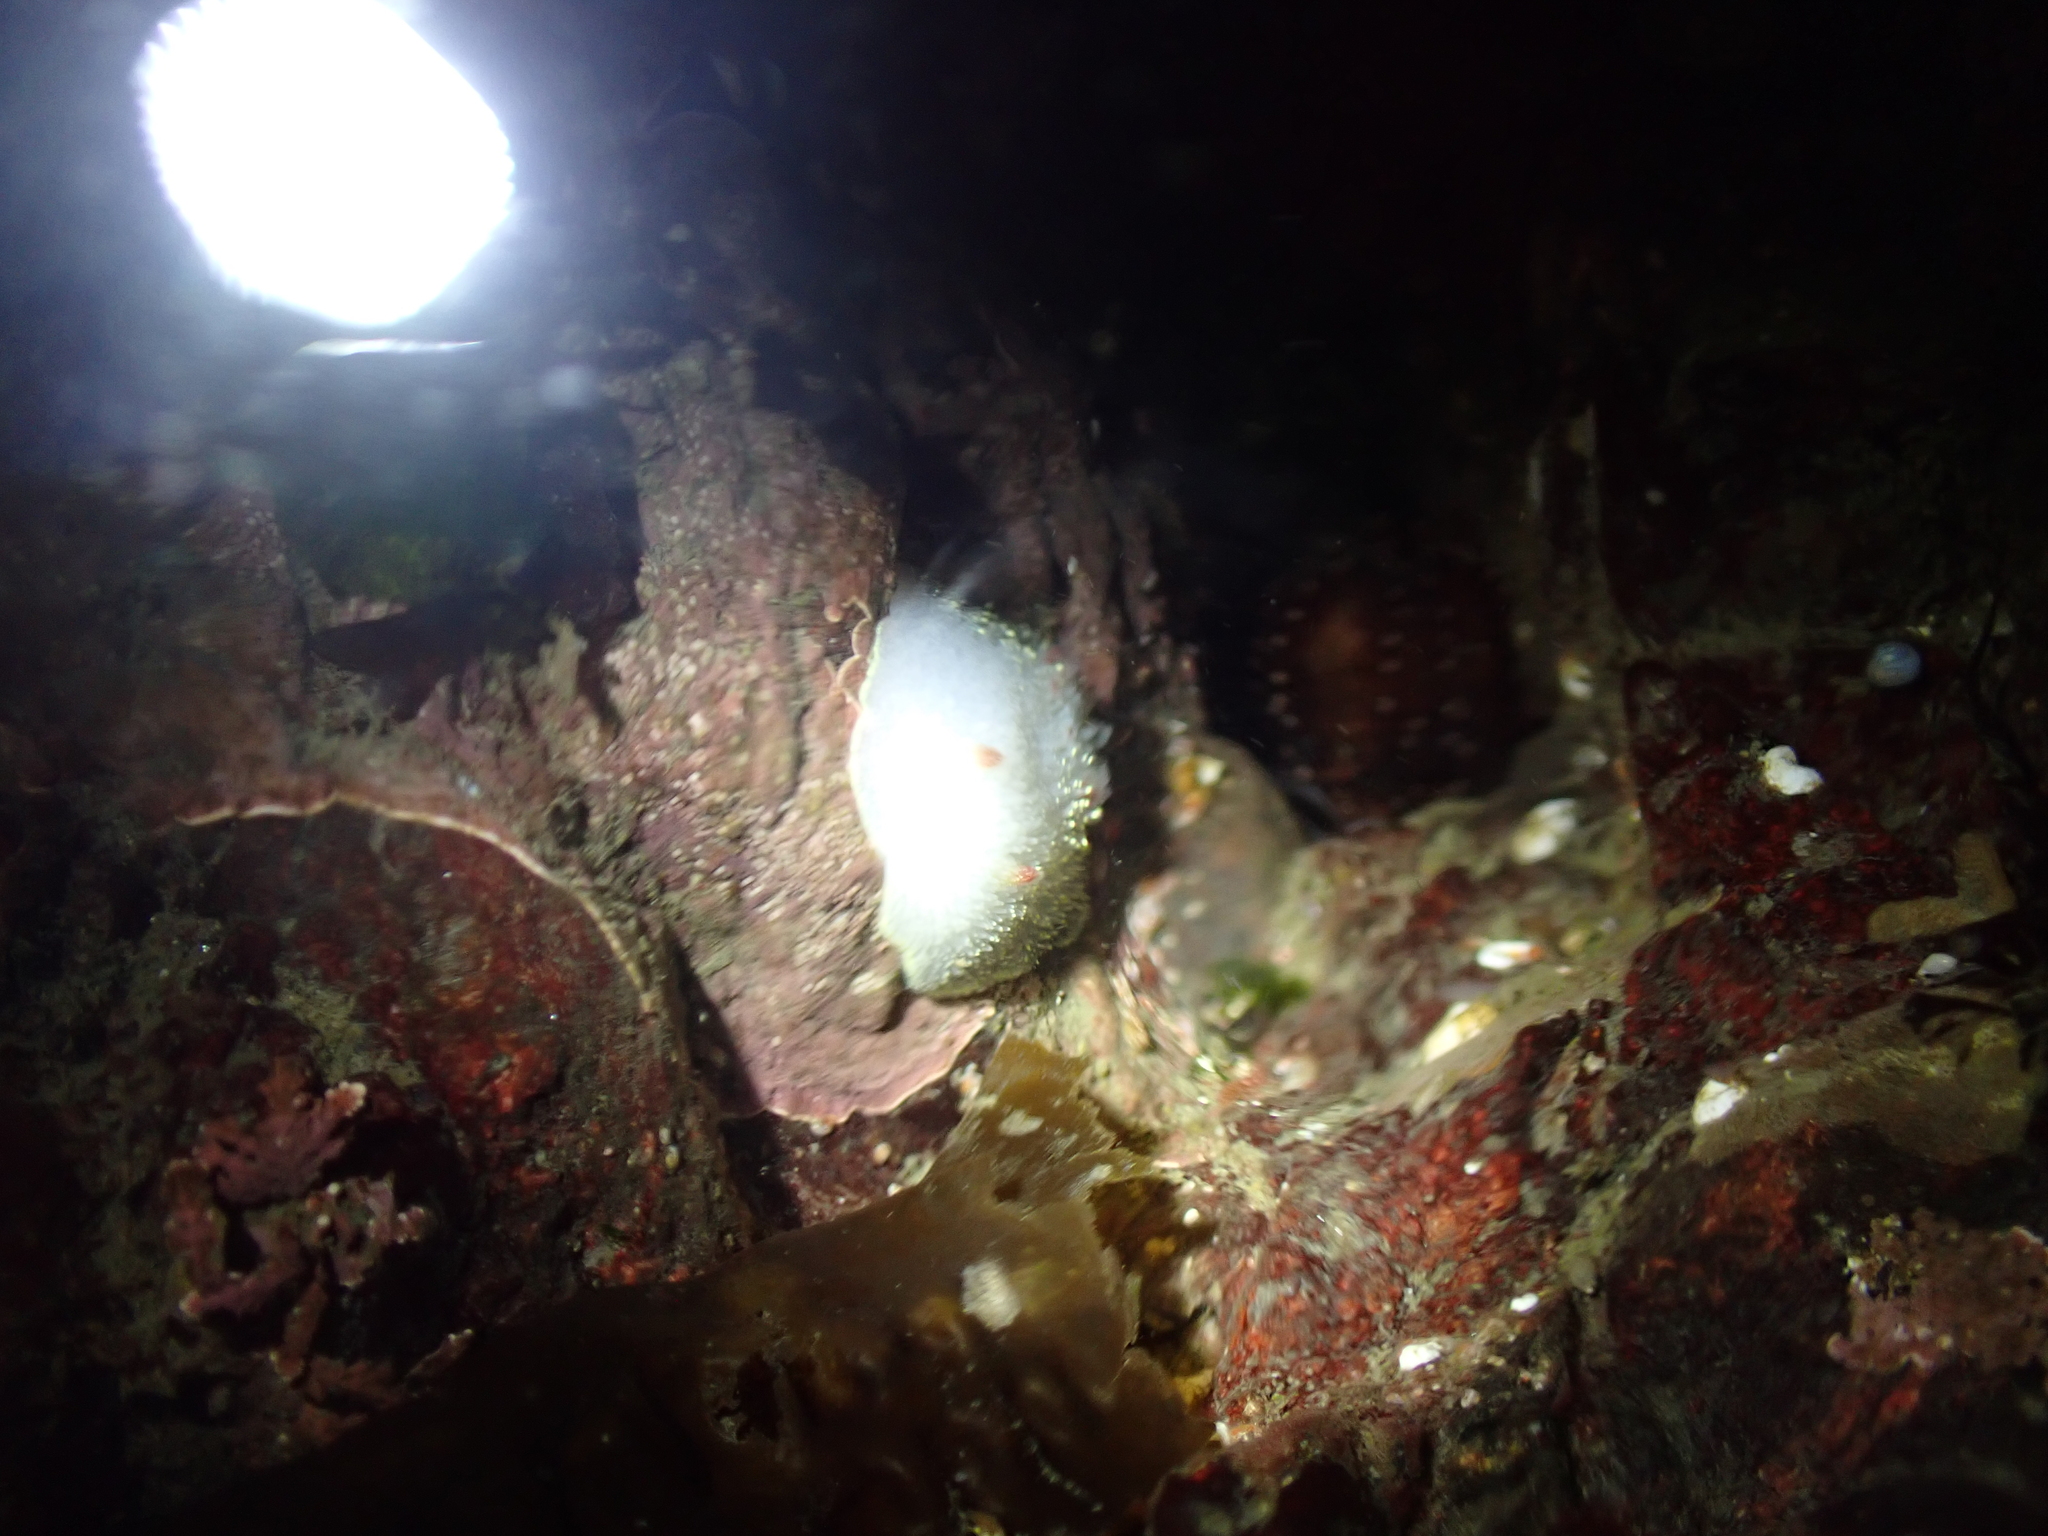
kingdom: Animalia
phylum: Mollusca
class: Gastropoda
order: Nudibranchia
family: Onchidorididae
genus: Acanthodoris
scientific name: Acanthodoris nanaimoensis
